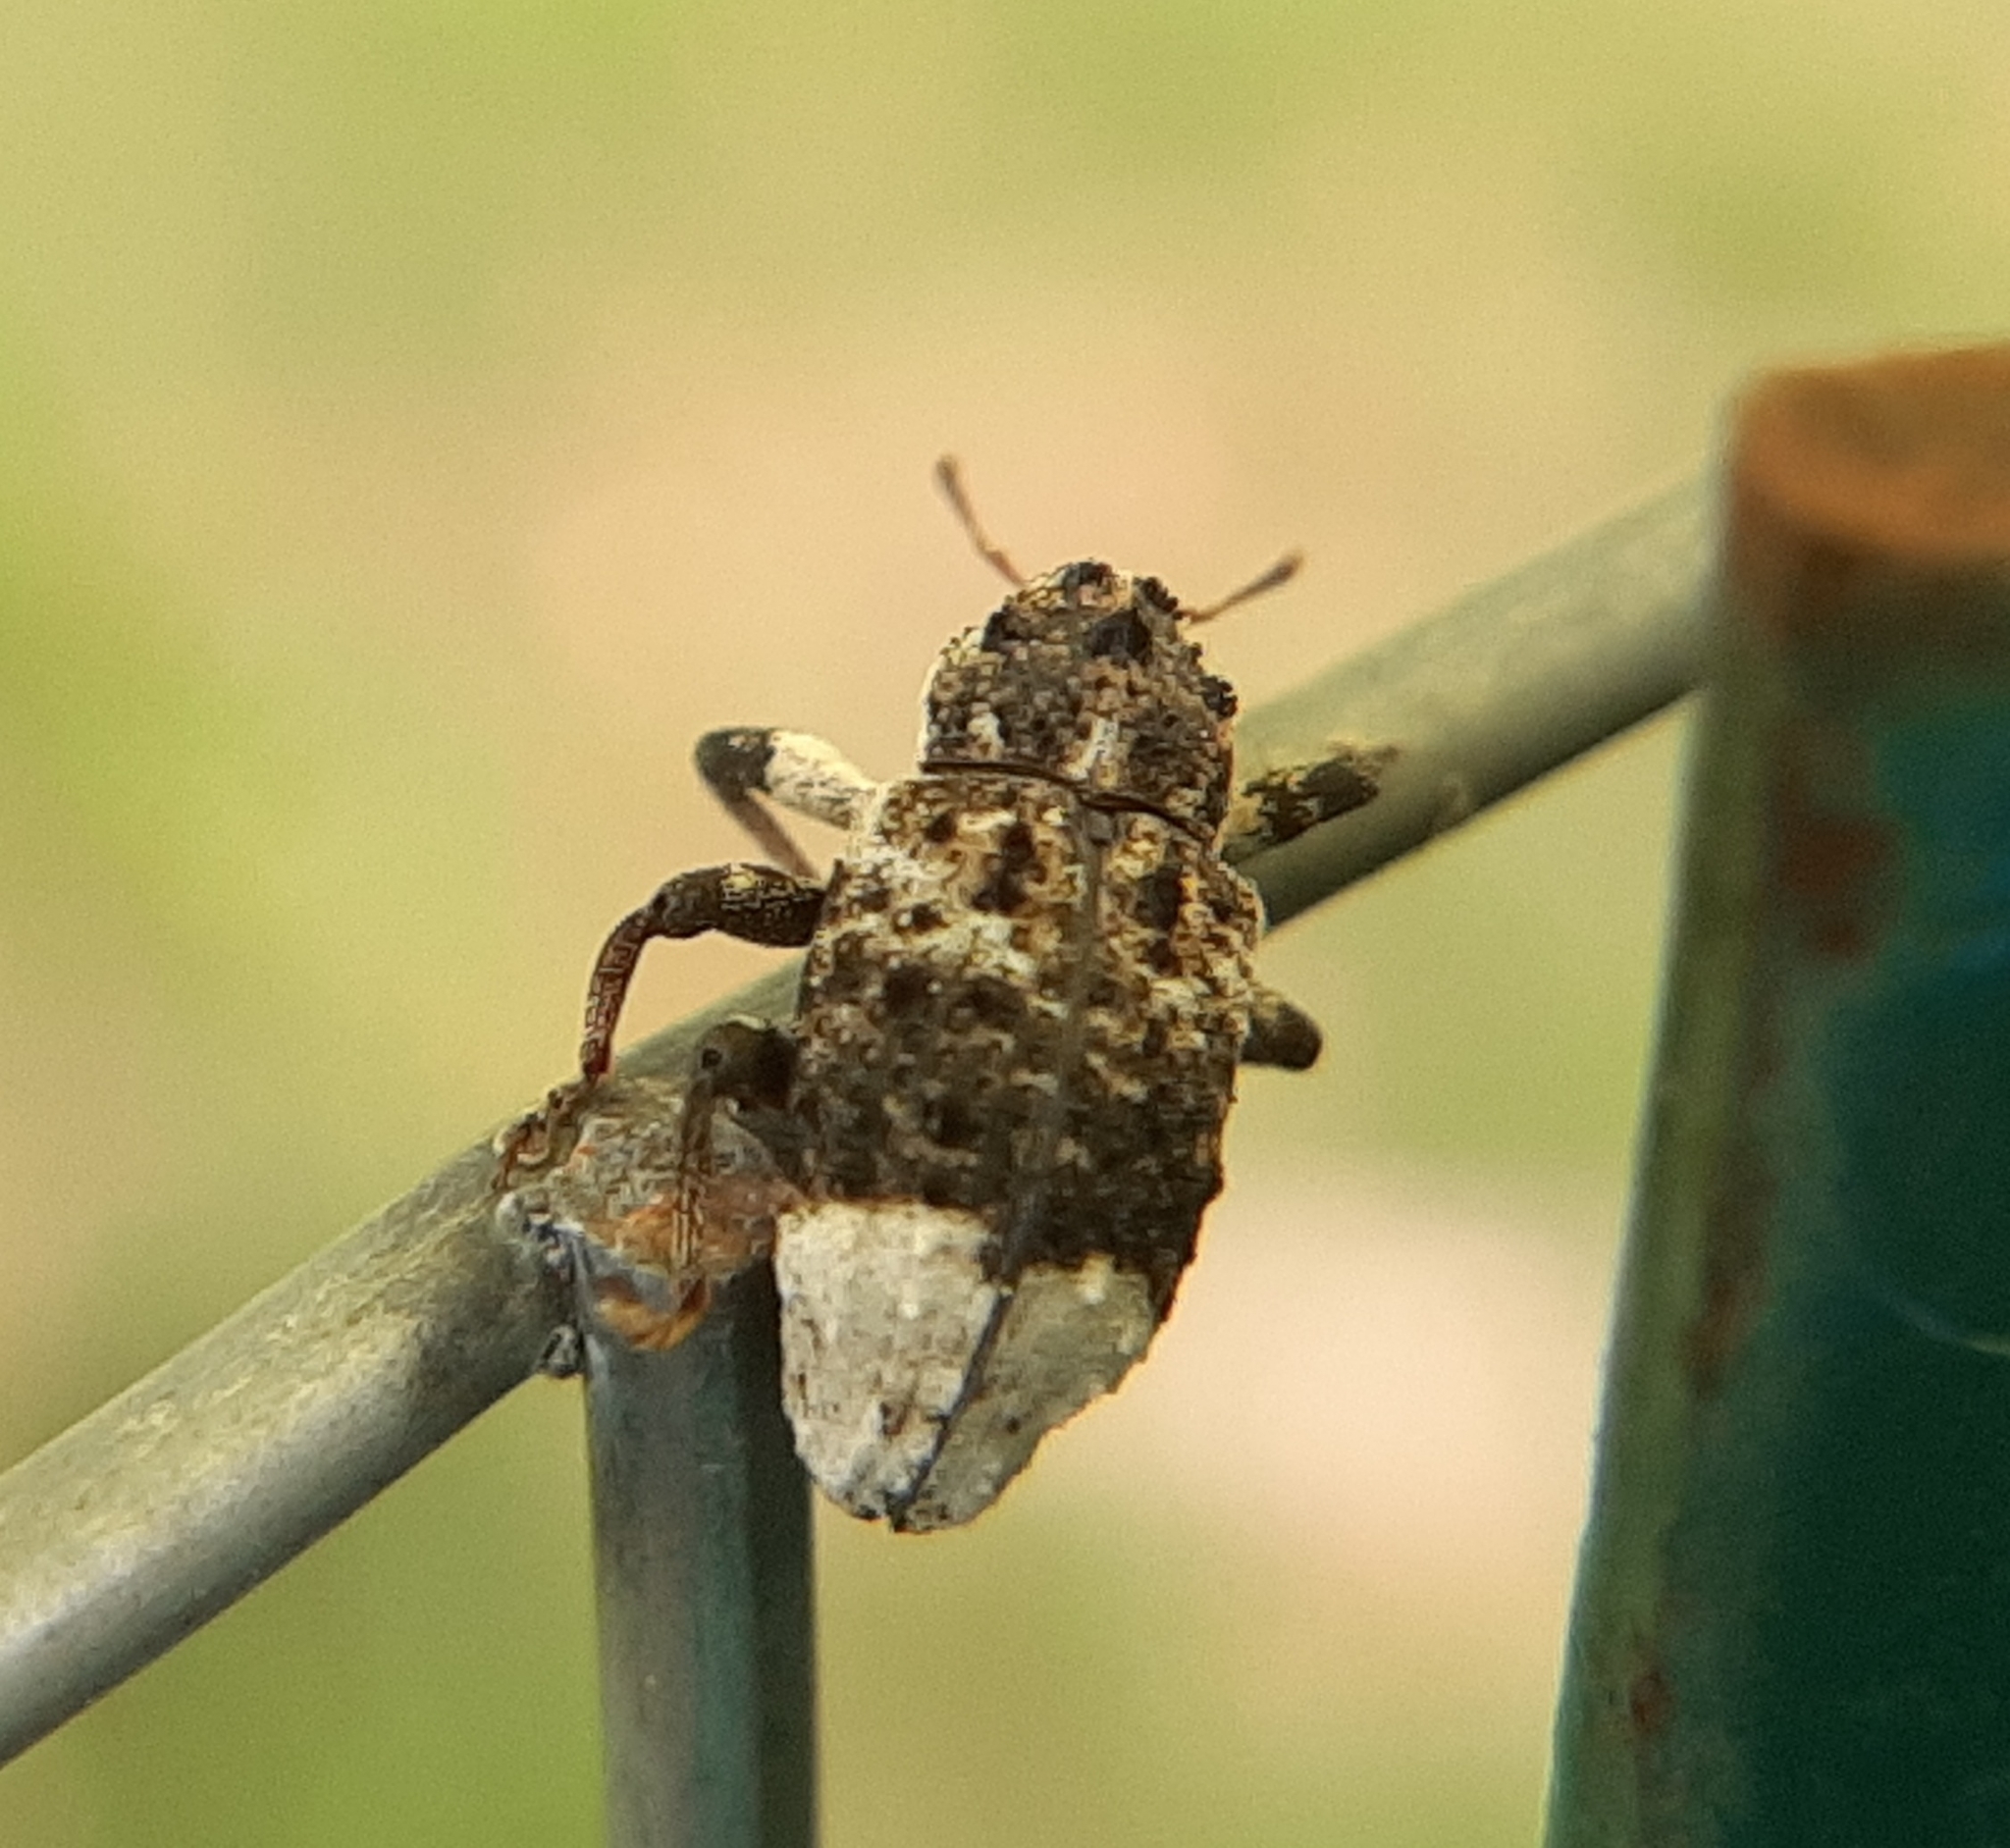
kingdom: Animalia
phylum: Arthropoda
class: Insecta
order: Coleoptera
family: Curculionidae
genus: Cryptorhynchus
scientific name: Cryptorhynchus lapathi
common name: Weevil
